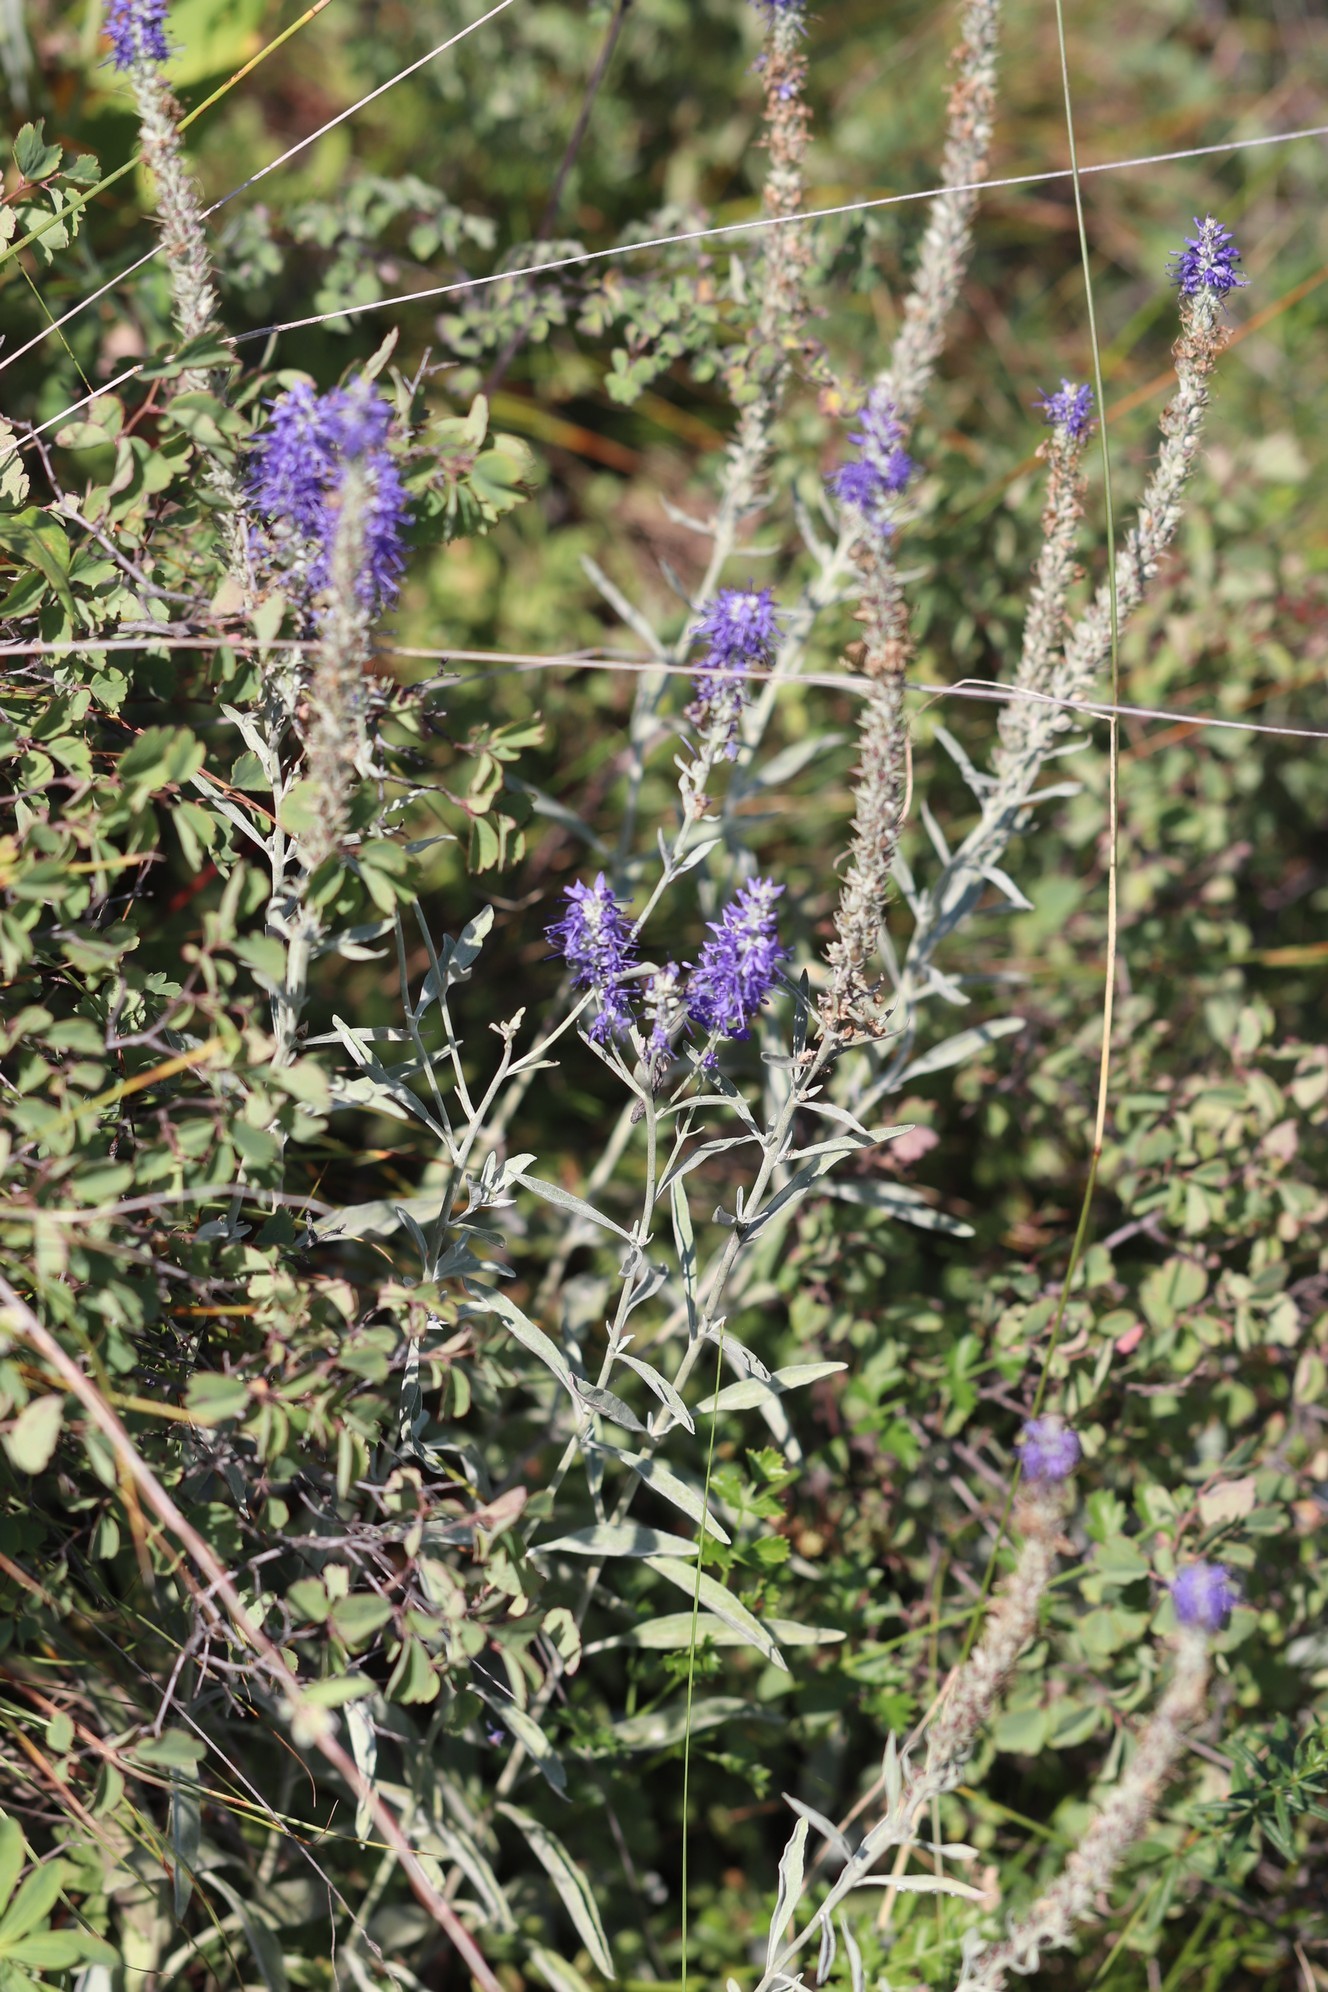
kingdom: Plantae
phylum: Tracheophyta
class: Magnoliopsida
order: Lamiales
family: Plantaginaceae
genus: Veronica
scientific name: Veronica incana
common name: Silver speedwell
